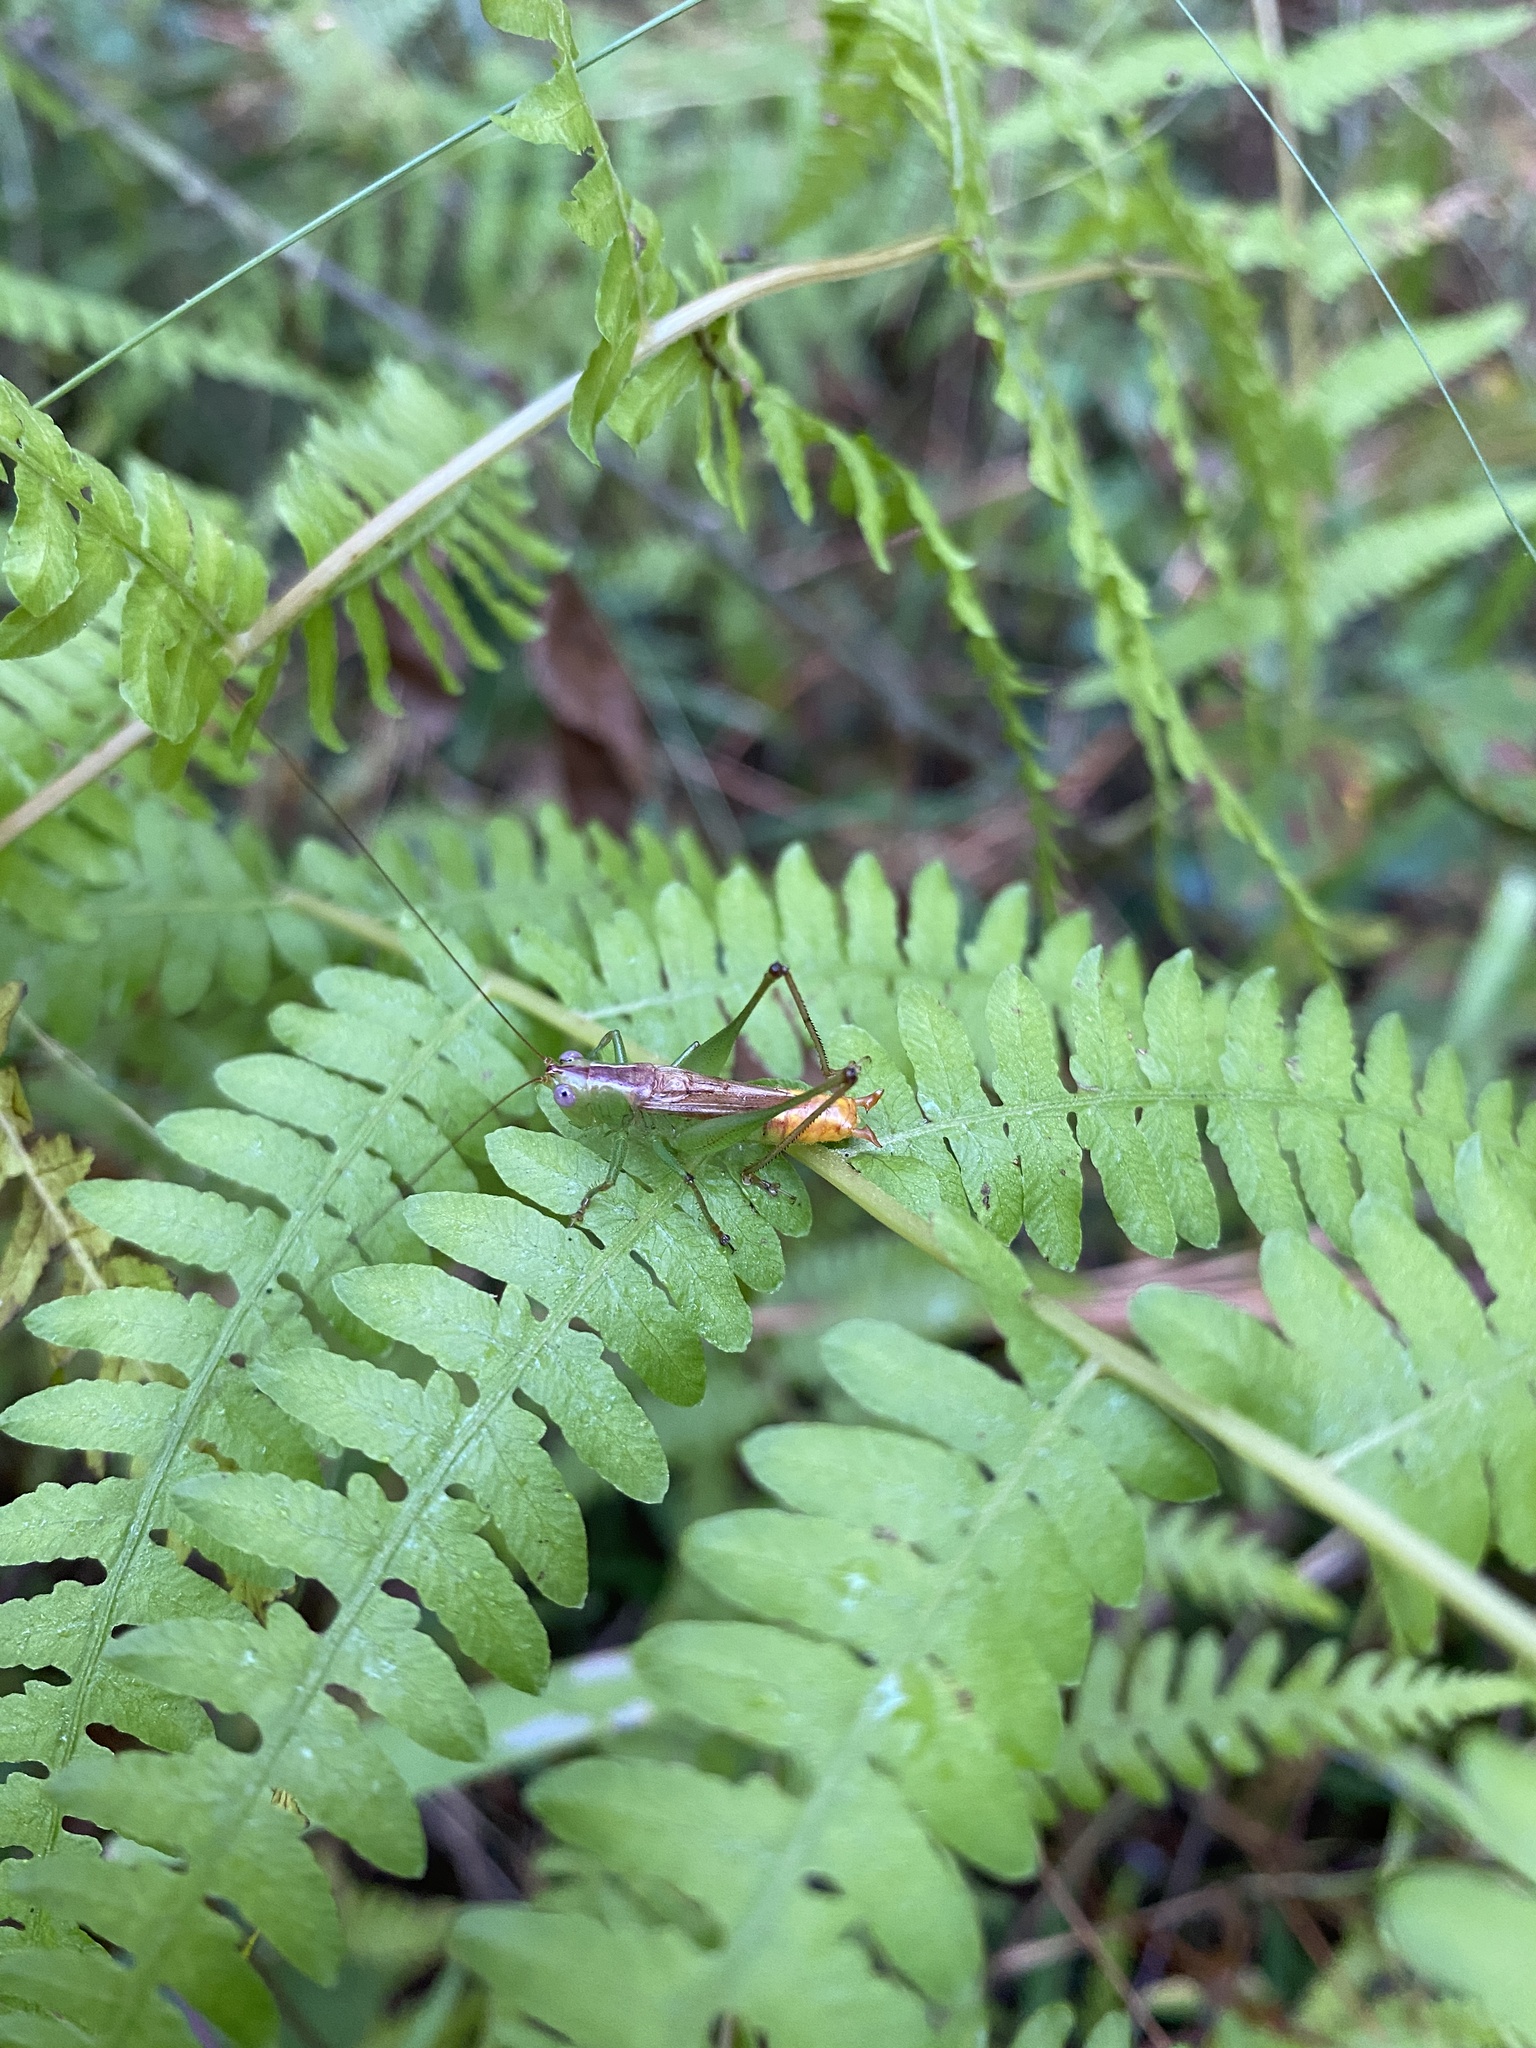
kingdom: Animalia
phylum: Arthropoda
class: Insecta
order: Orthoptera
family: Tettigoniidae
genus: Conocephalus
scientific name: Conocephalus brevipennis
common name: Short-winged meadow katydid
